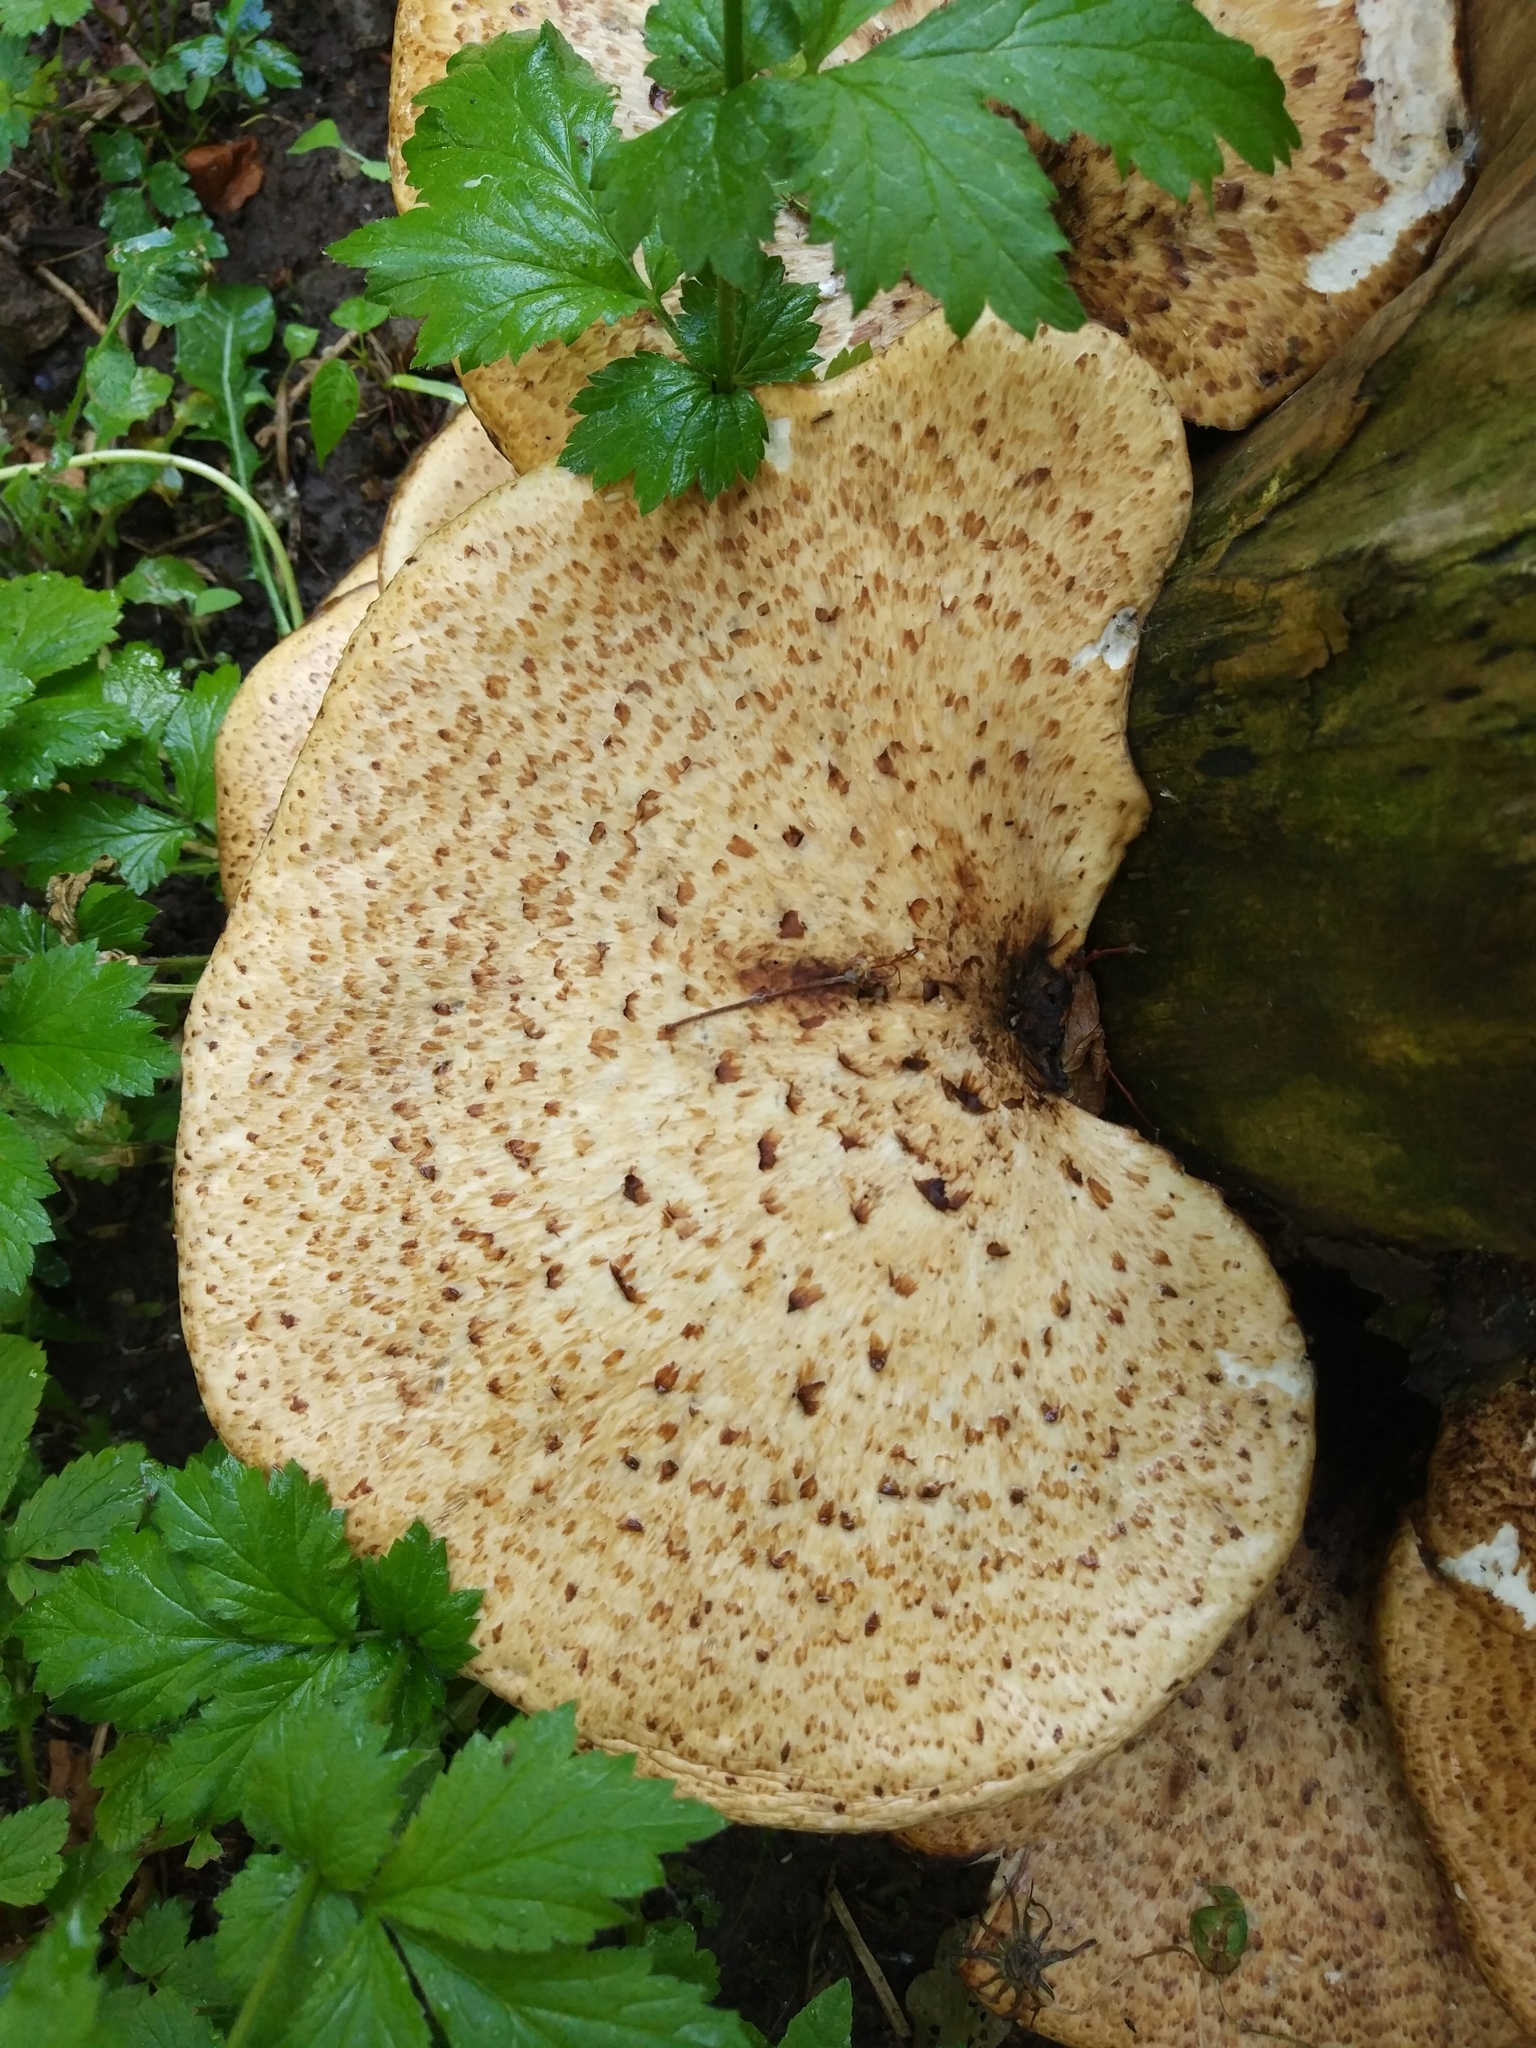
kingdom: Fungi
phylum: Basidiomycota
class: Agaricomycetes
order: Polyporales
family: Polyporaceae
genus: Cerioporus
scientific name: Cerioporus squamosus
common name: Dryad's saddle
